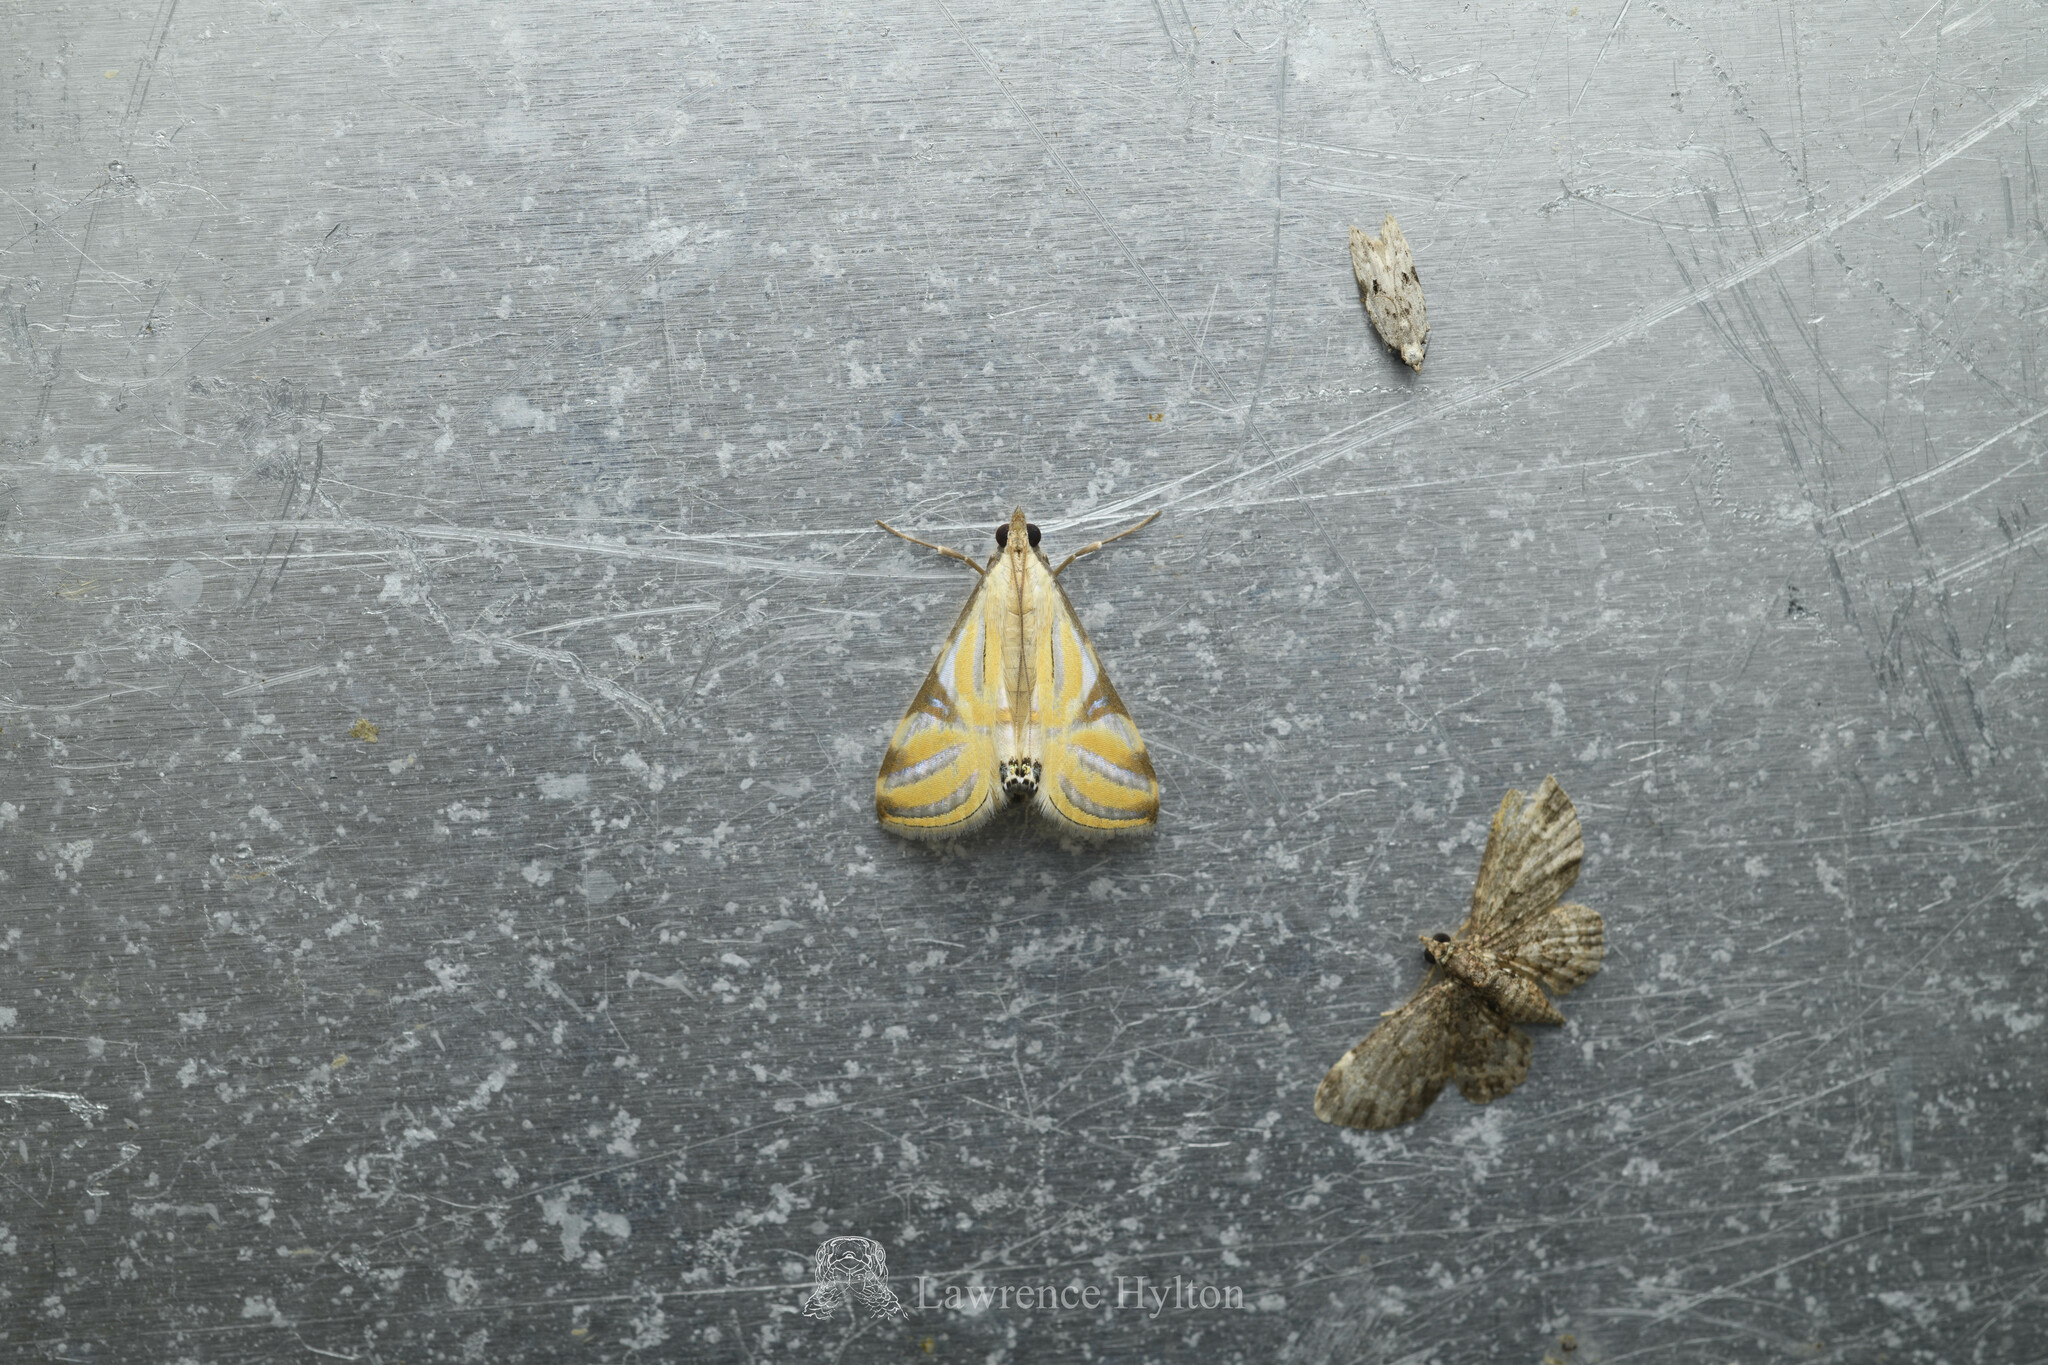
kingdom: Animalia
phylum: Arthropoda
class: Insecta
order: Lepidoptera
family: Crambidae
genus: Talanga
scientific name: Talanga sexpunctalis
